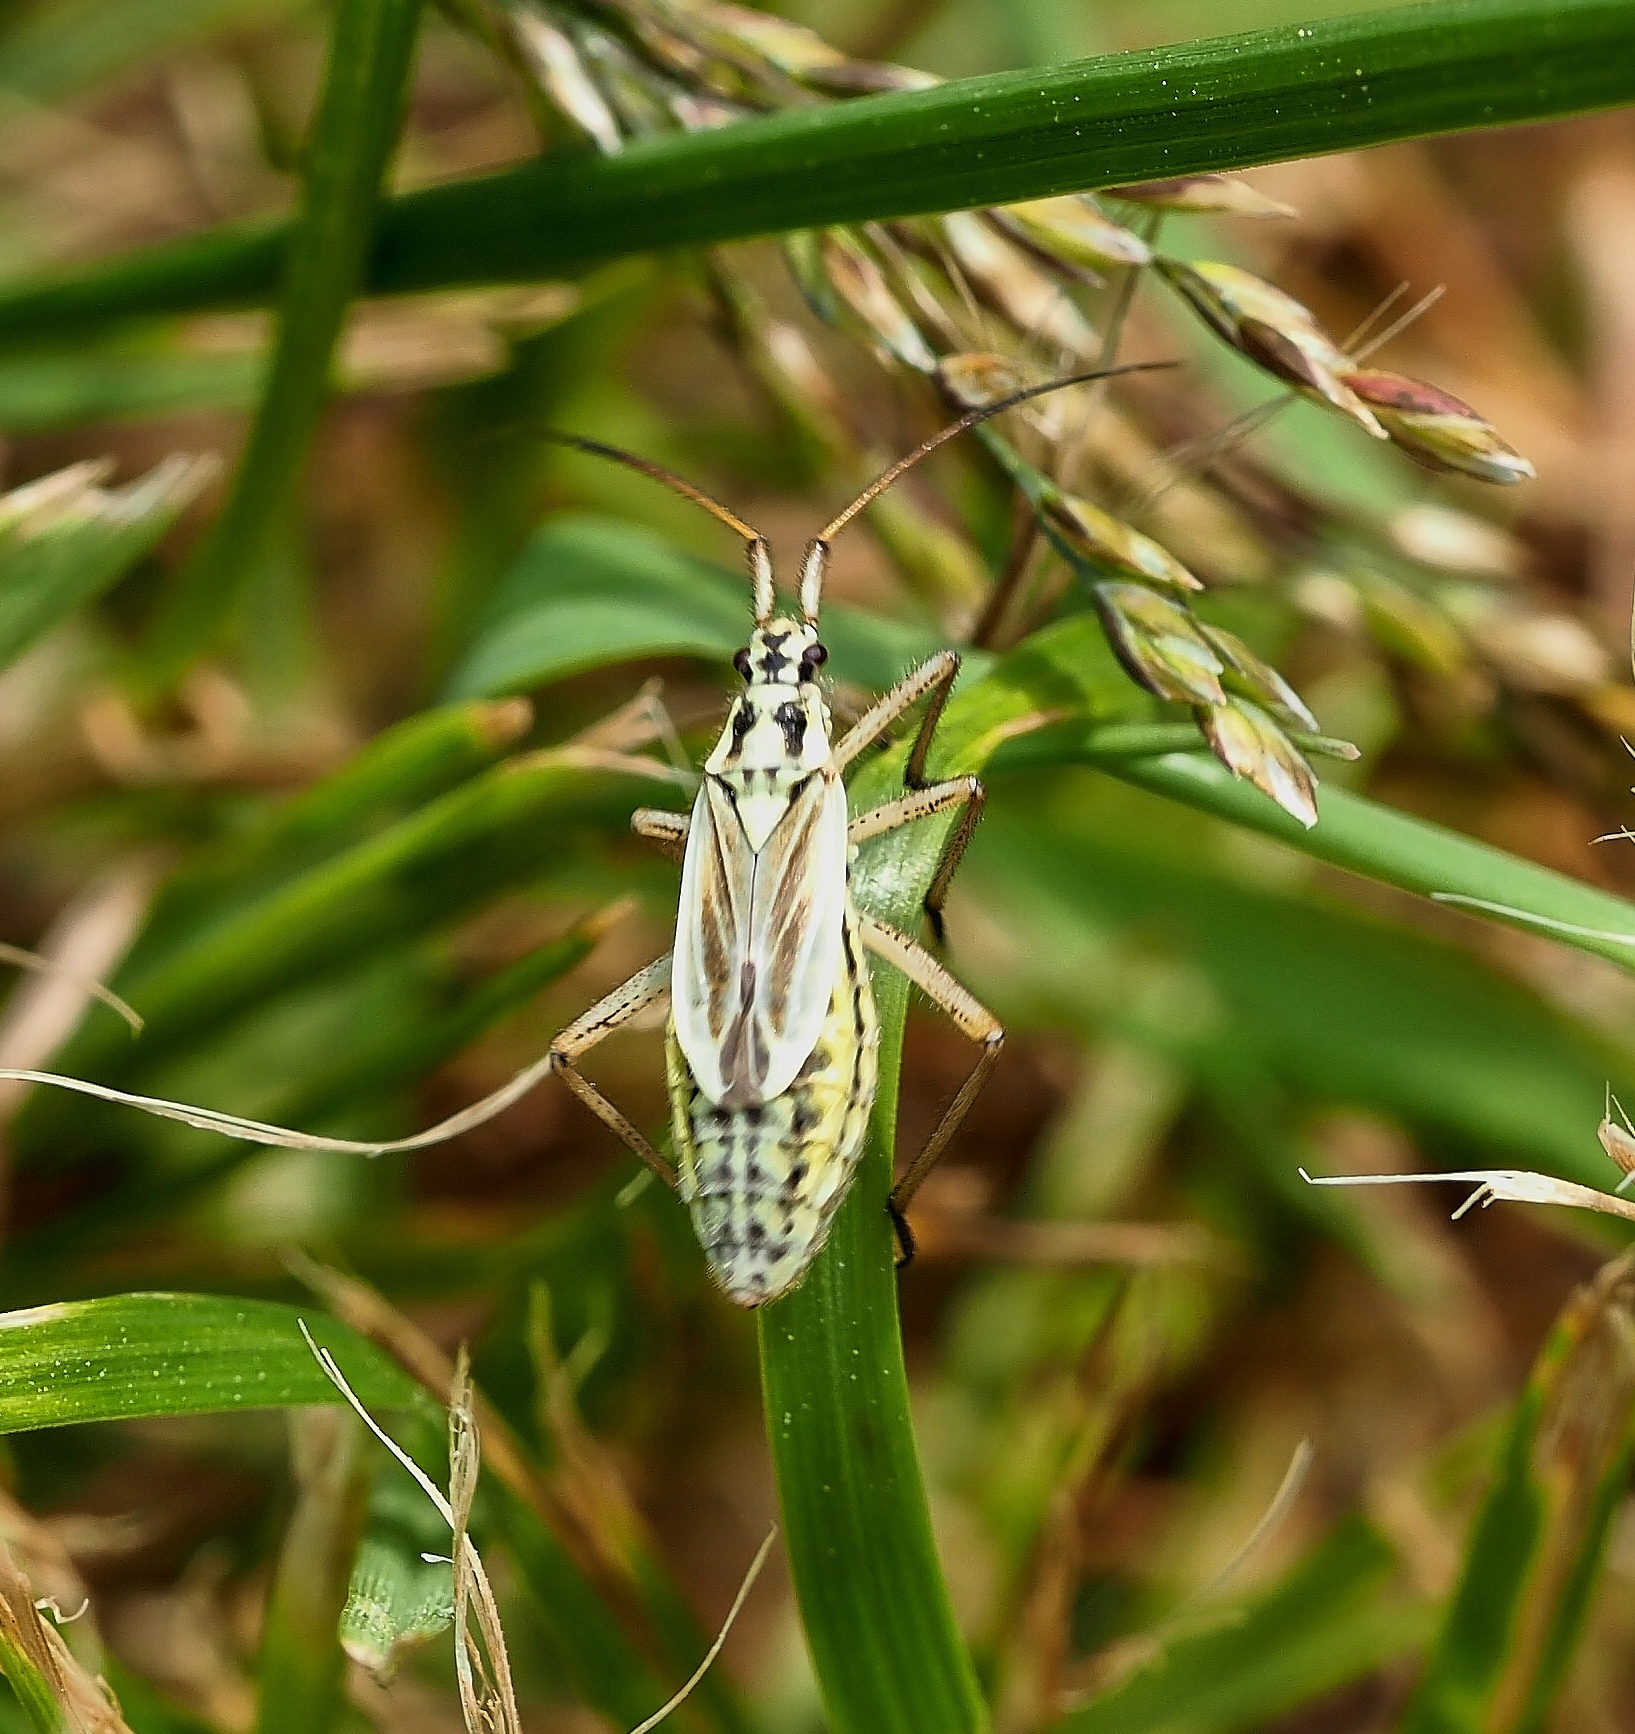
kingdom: Animalia
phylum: Arthropoda
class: Insecta
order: Hemiptera
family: Miridae
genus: Leptopterna
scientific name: Leptopterna dolabrata
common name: Meadow plant bug
